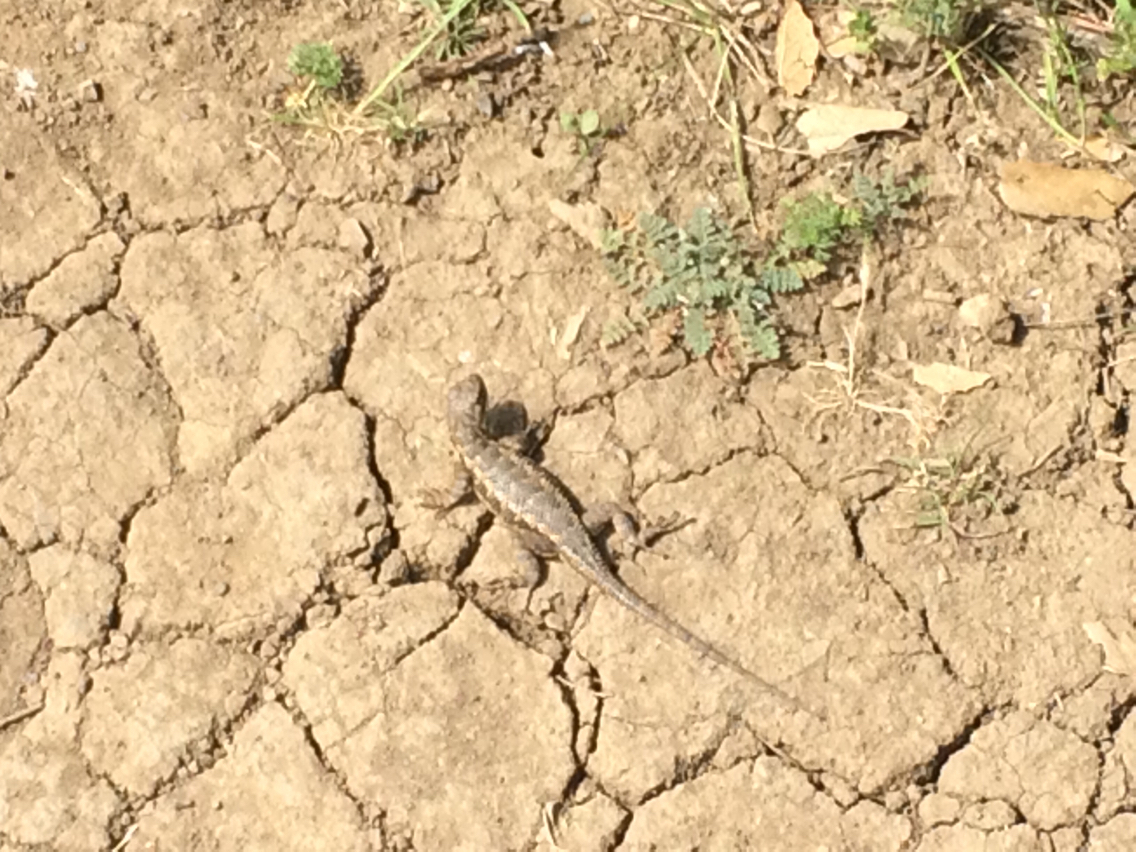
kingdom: Animalia
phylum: Chordata
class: Squamata
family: Phrynosomatidae
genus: Sceloporus
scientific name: Sceloporus occidentalis
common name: Western fence lizard
